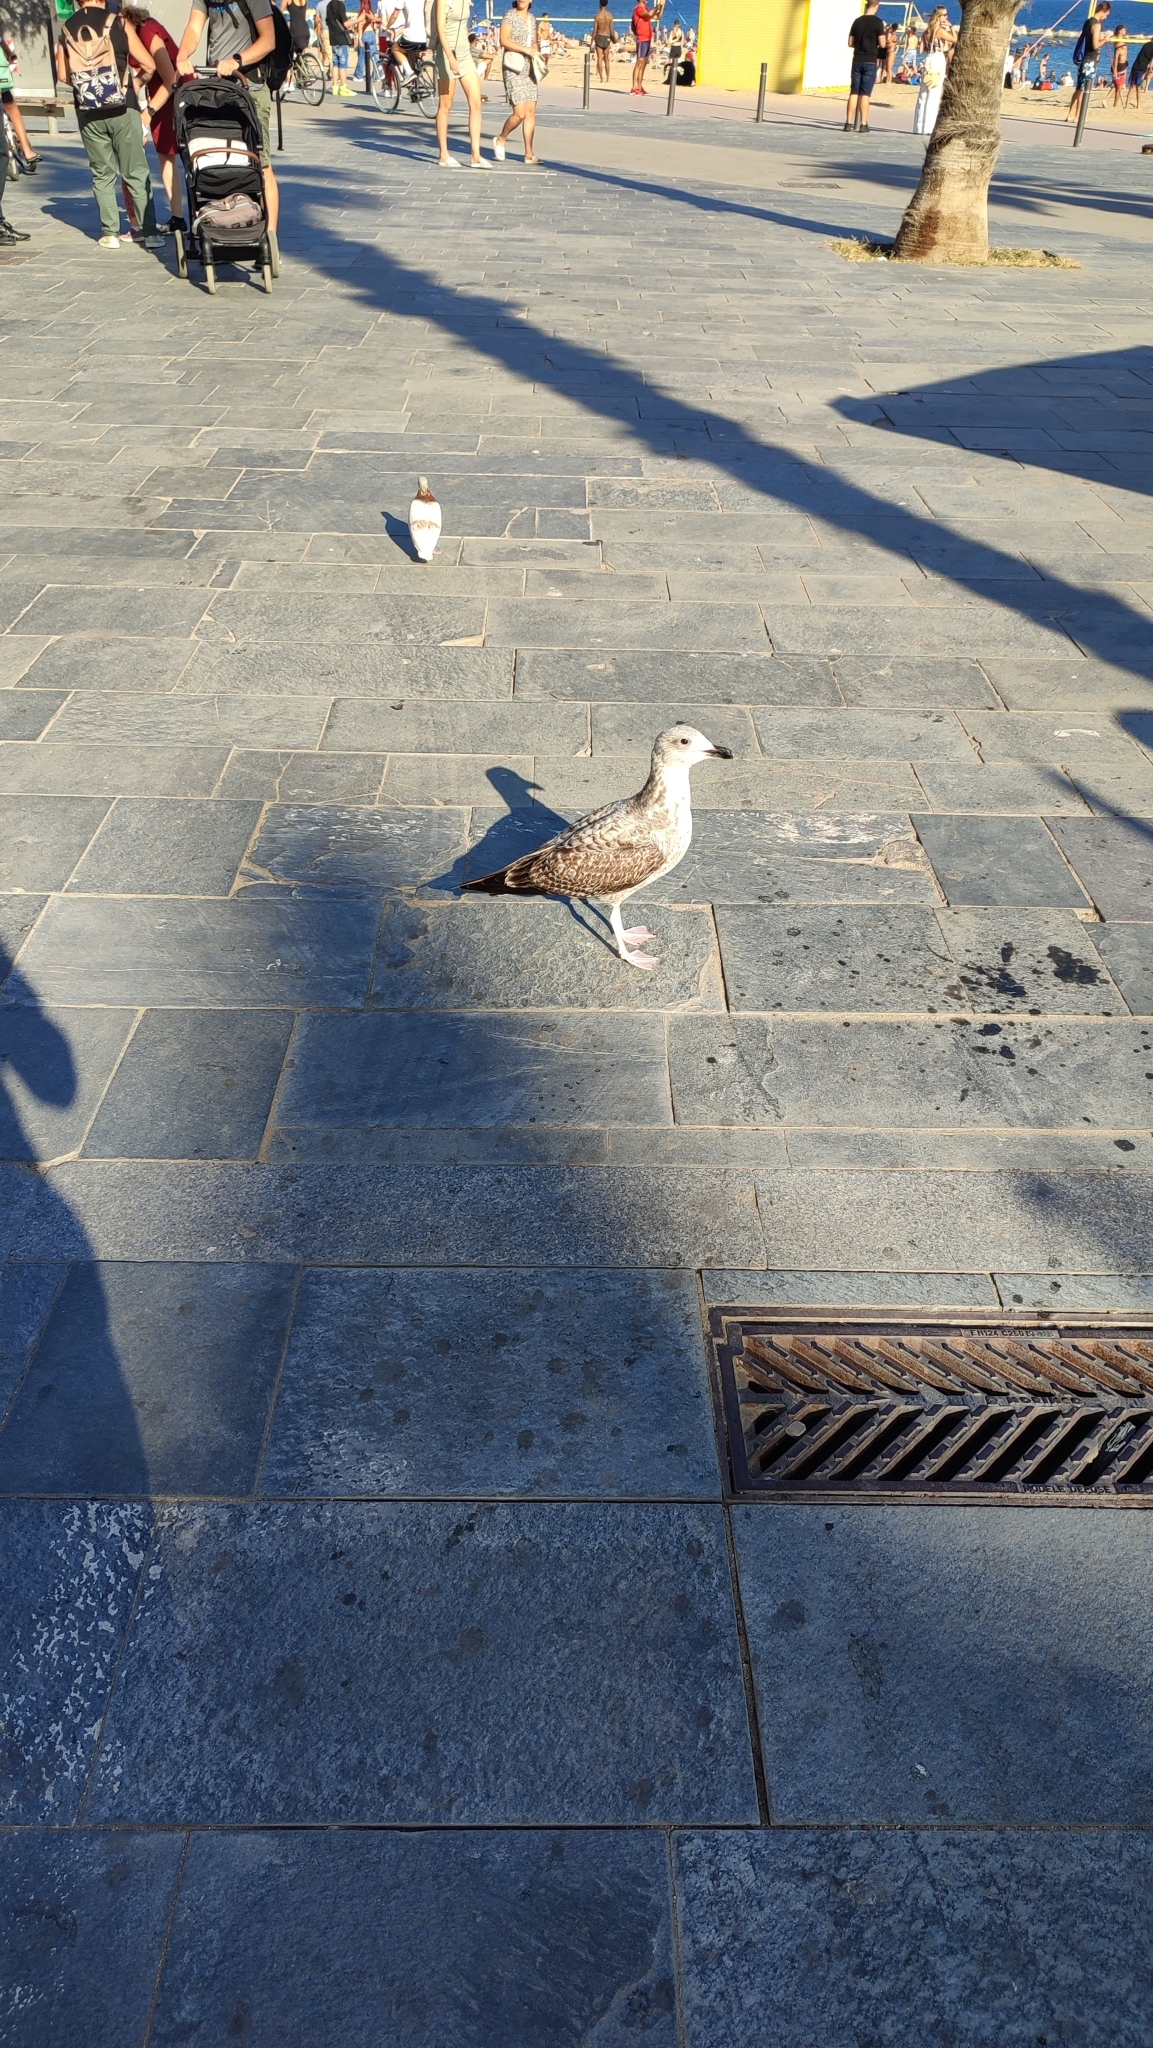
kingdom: Animalia
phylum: Chordata
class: Aves
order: Charadriiformes
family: Laridae
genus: Larus
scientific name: Larus michahellis
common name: Yellow-legged gull
